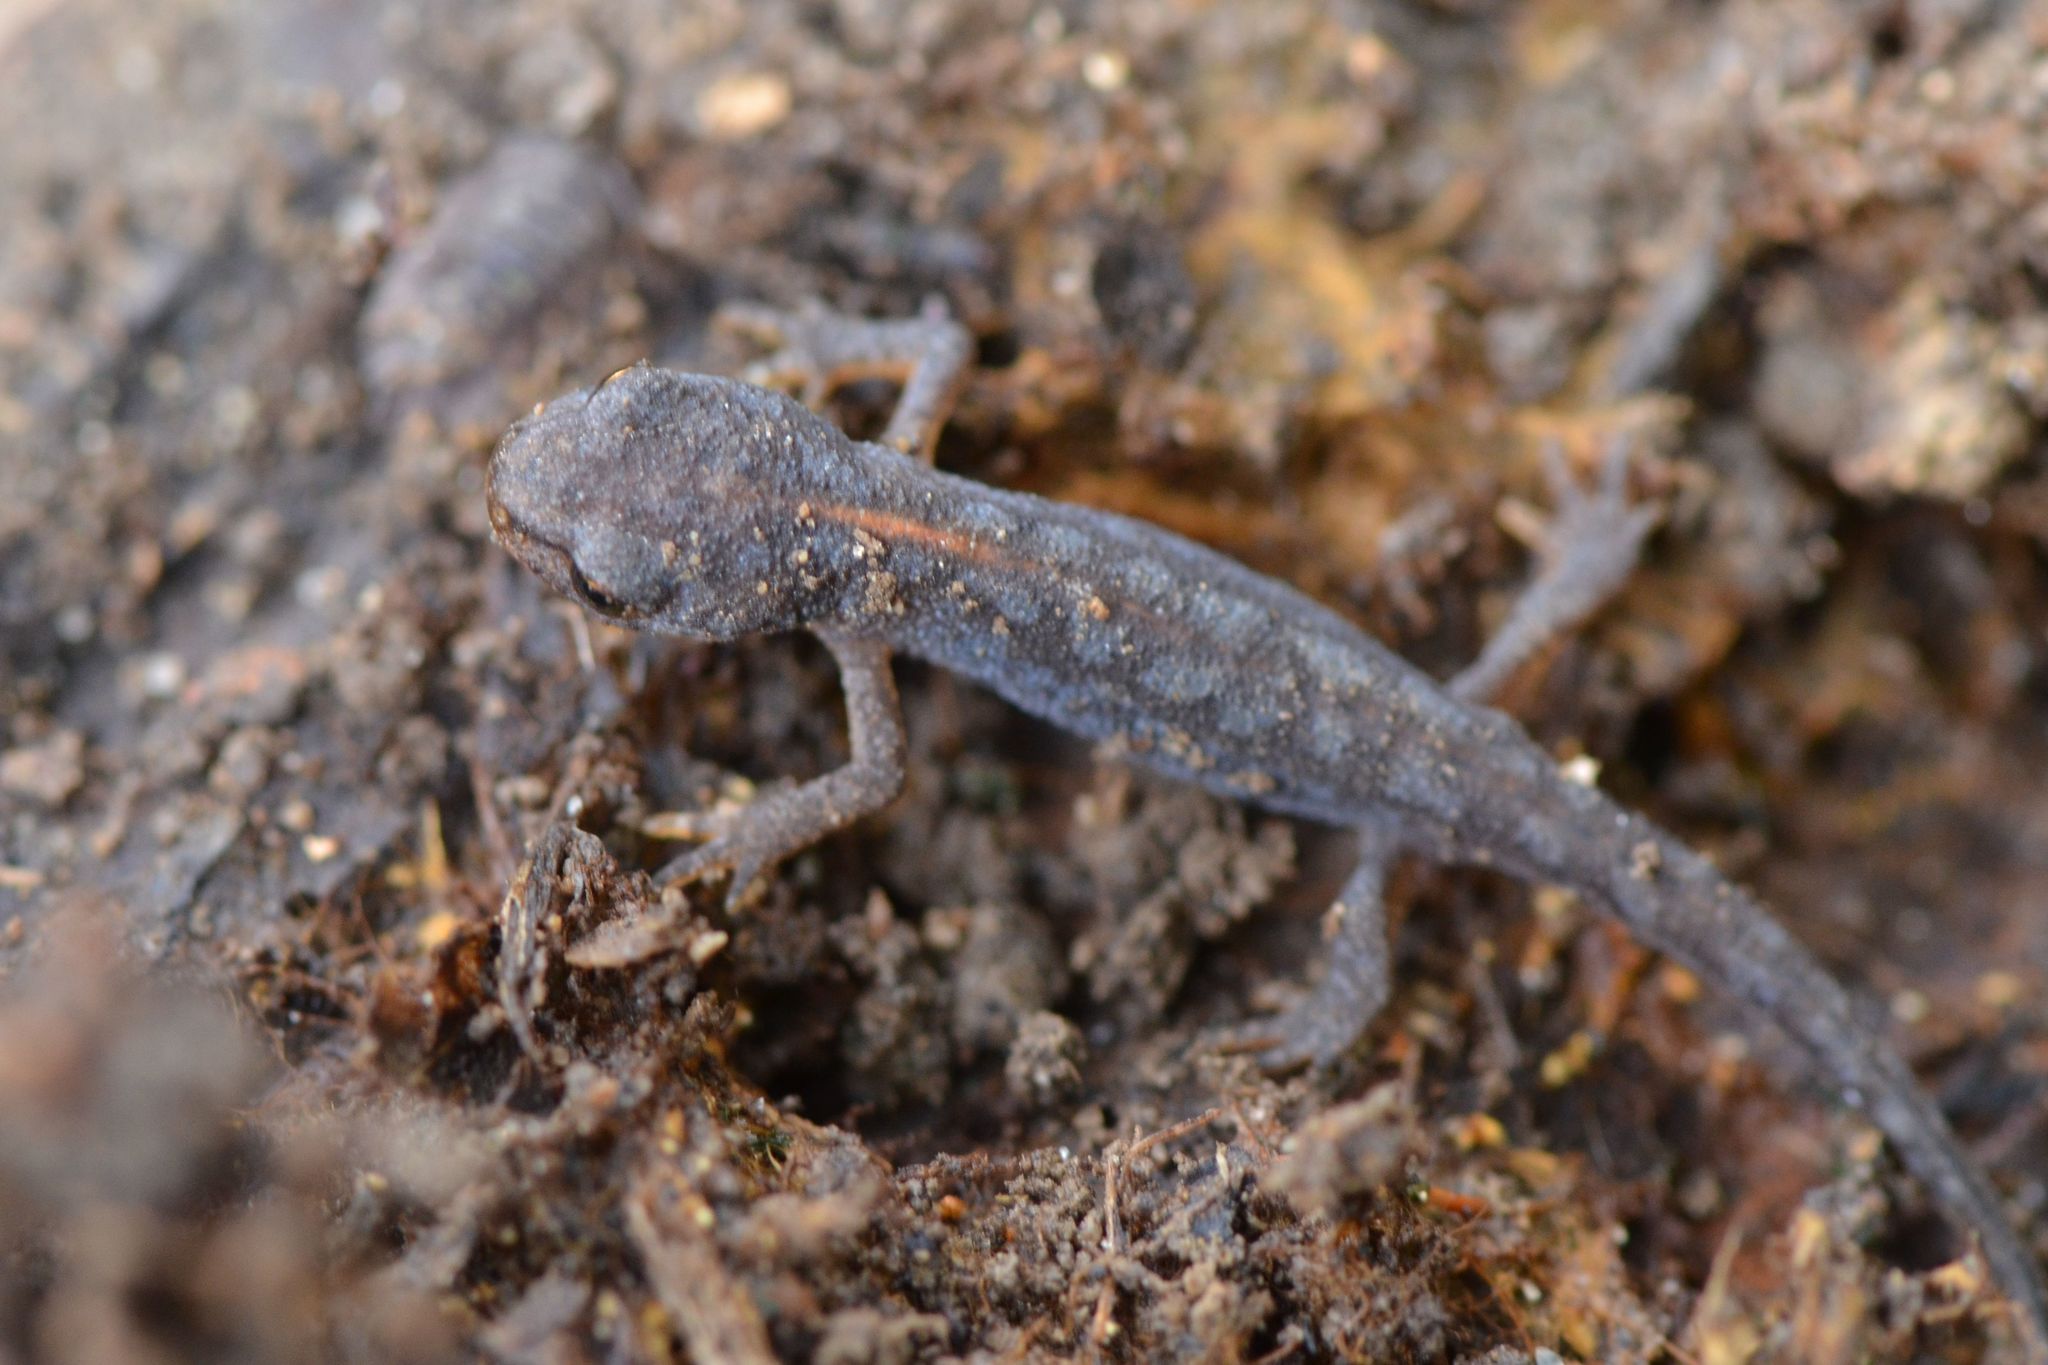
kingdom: Animalia
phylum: Chordata
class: Amphibia
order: Caudata
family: Salamandridae
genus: Ichthyosaura
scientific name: Ichthyosaura alpestris
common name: Alpine newt
